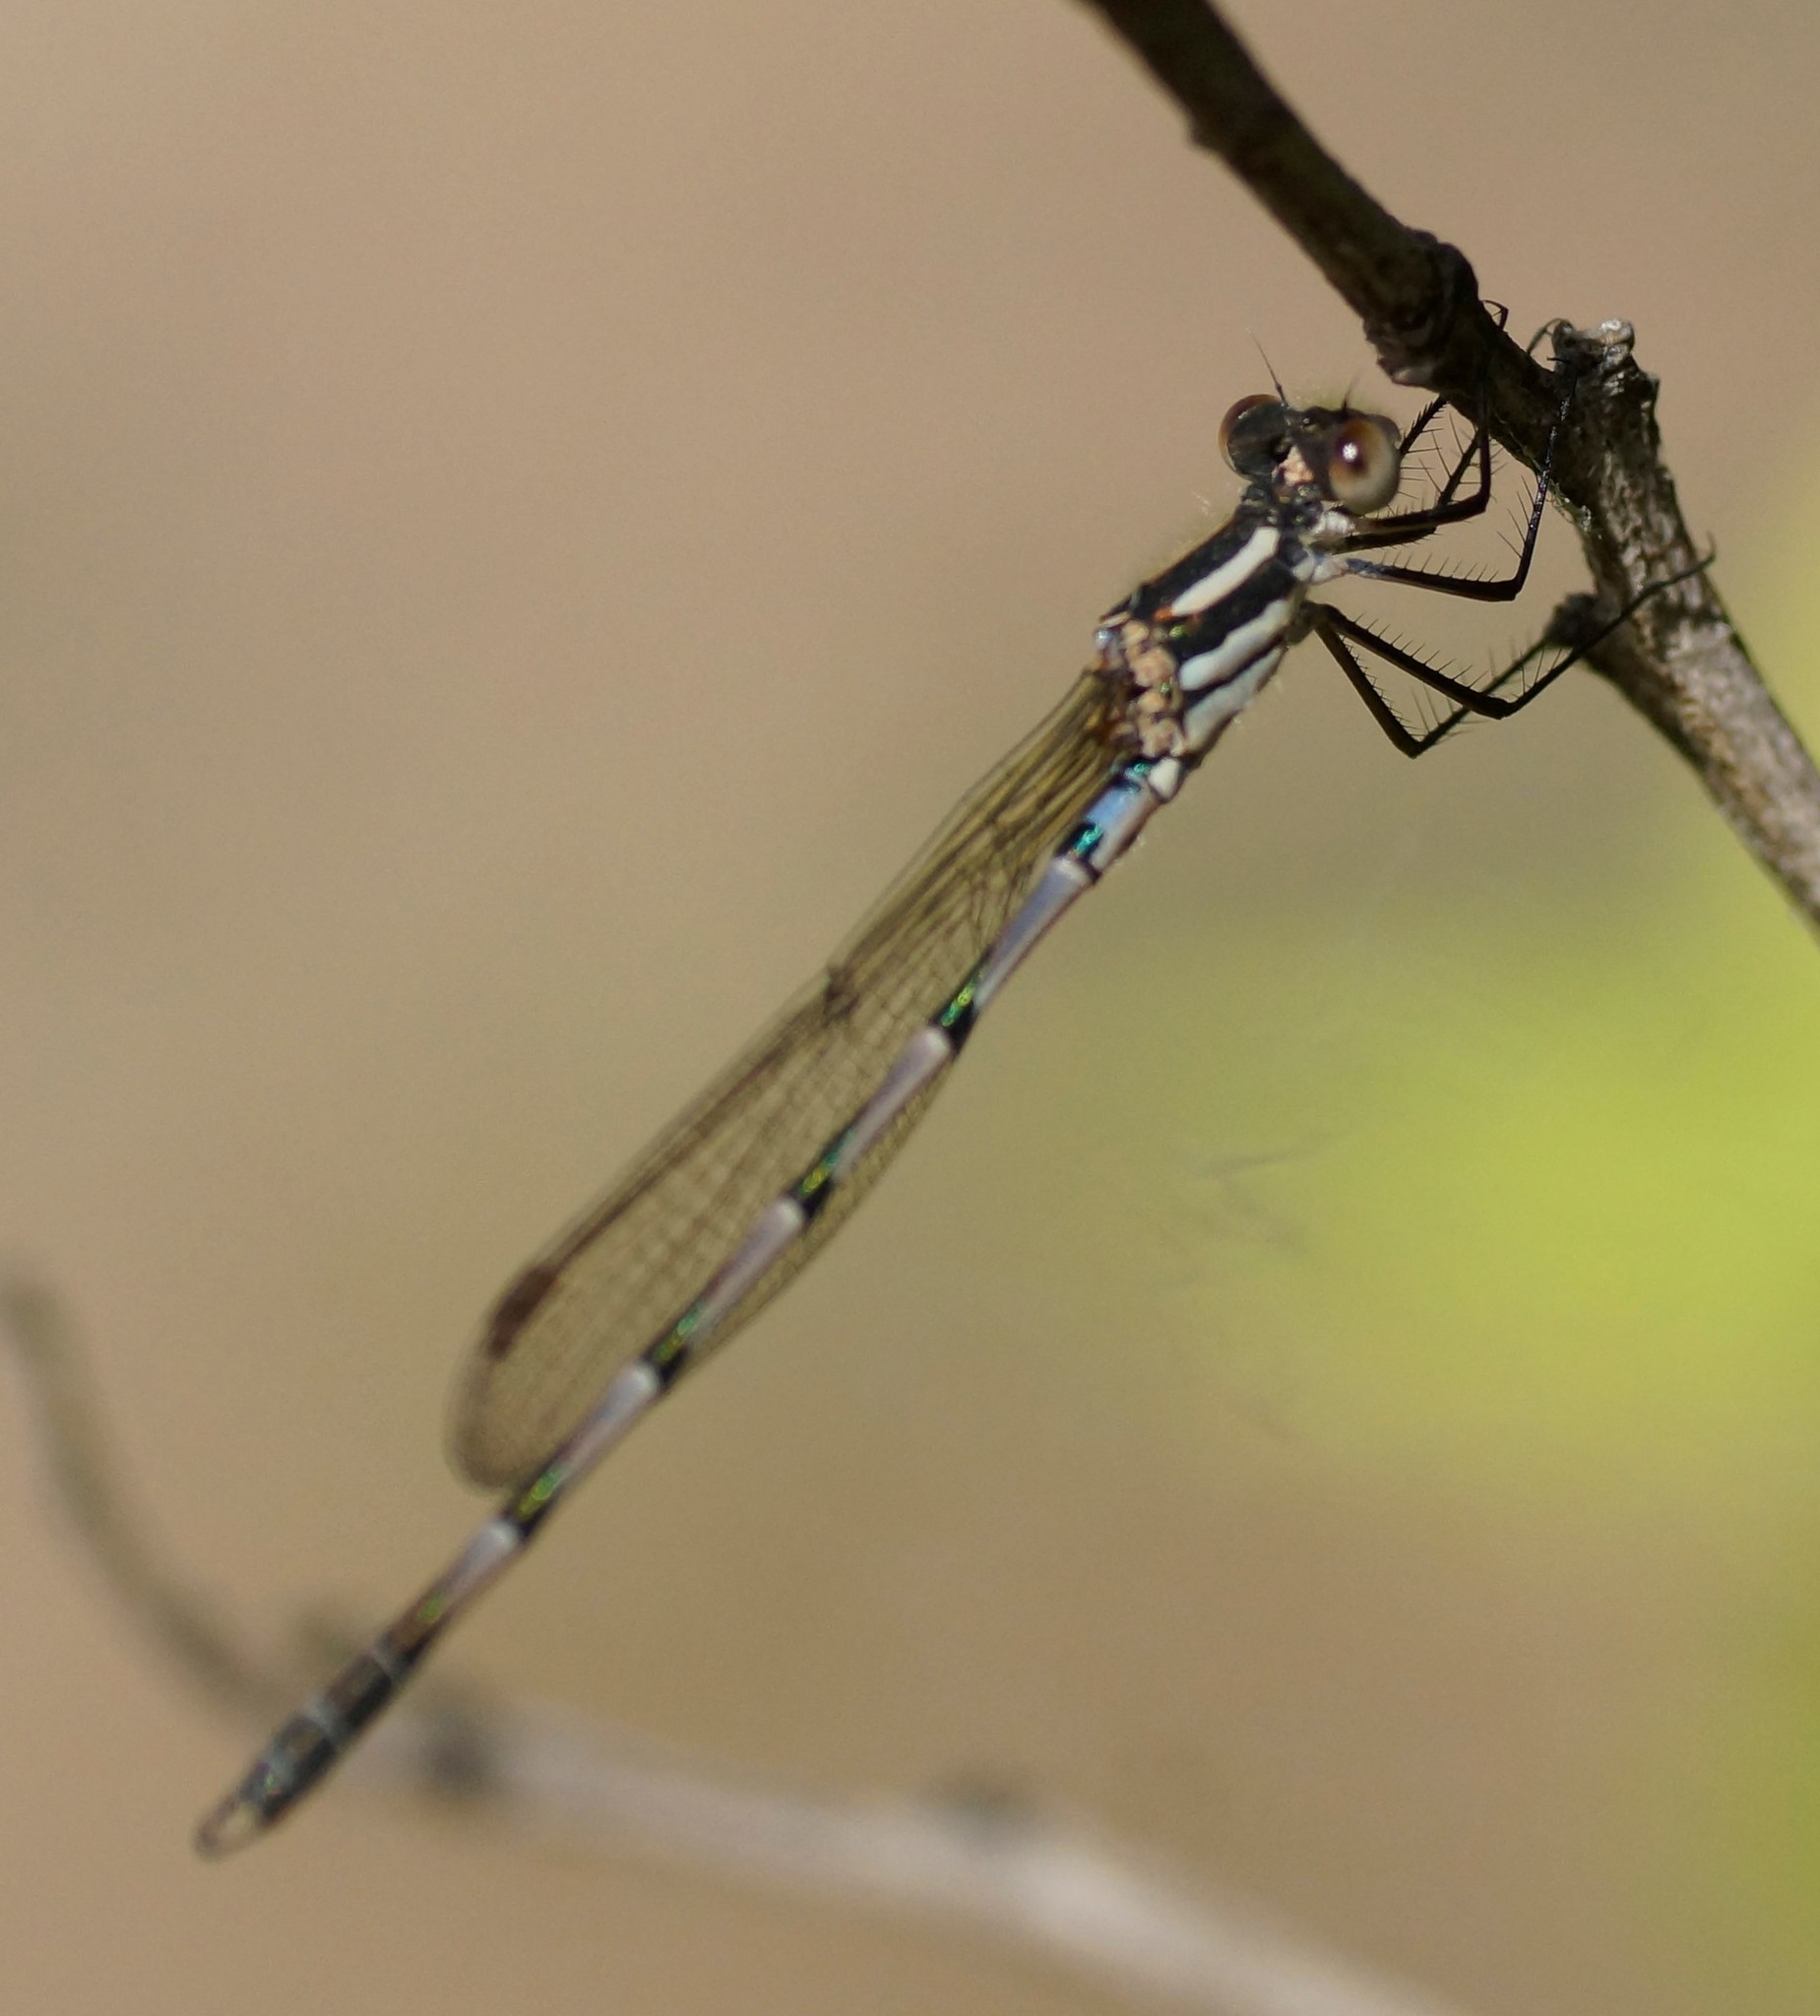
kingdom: Animalia
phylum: Arthropoda
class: Insecta
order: Odonata
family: Lestidae
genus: Austrolestes
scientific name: Austrolestes annulosus
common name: Blue ringtail
